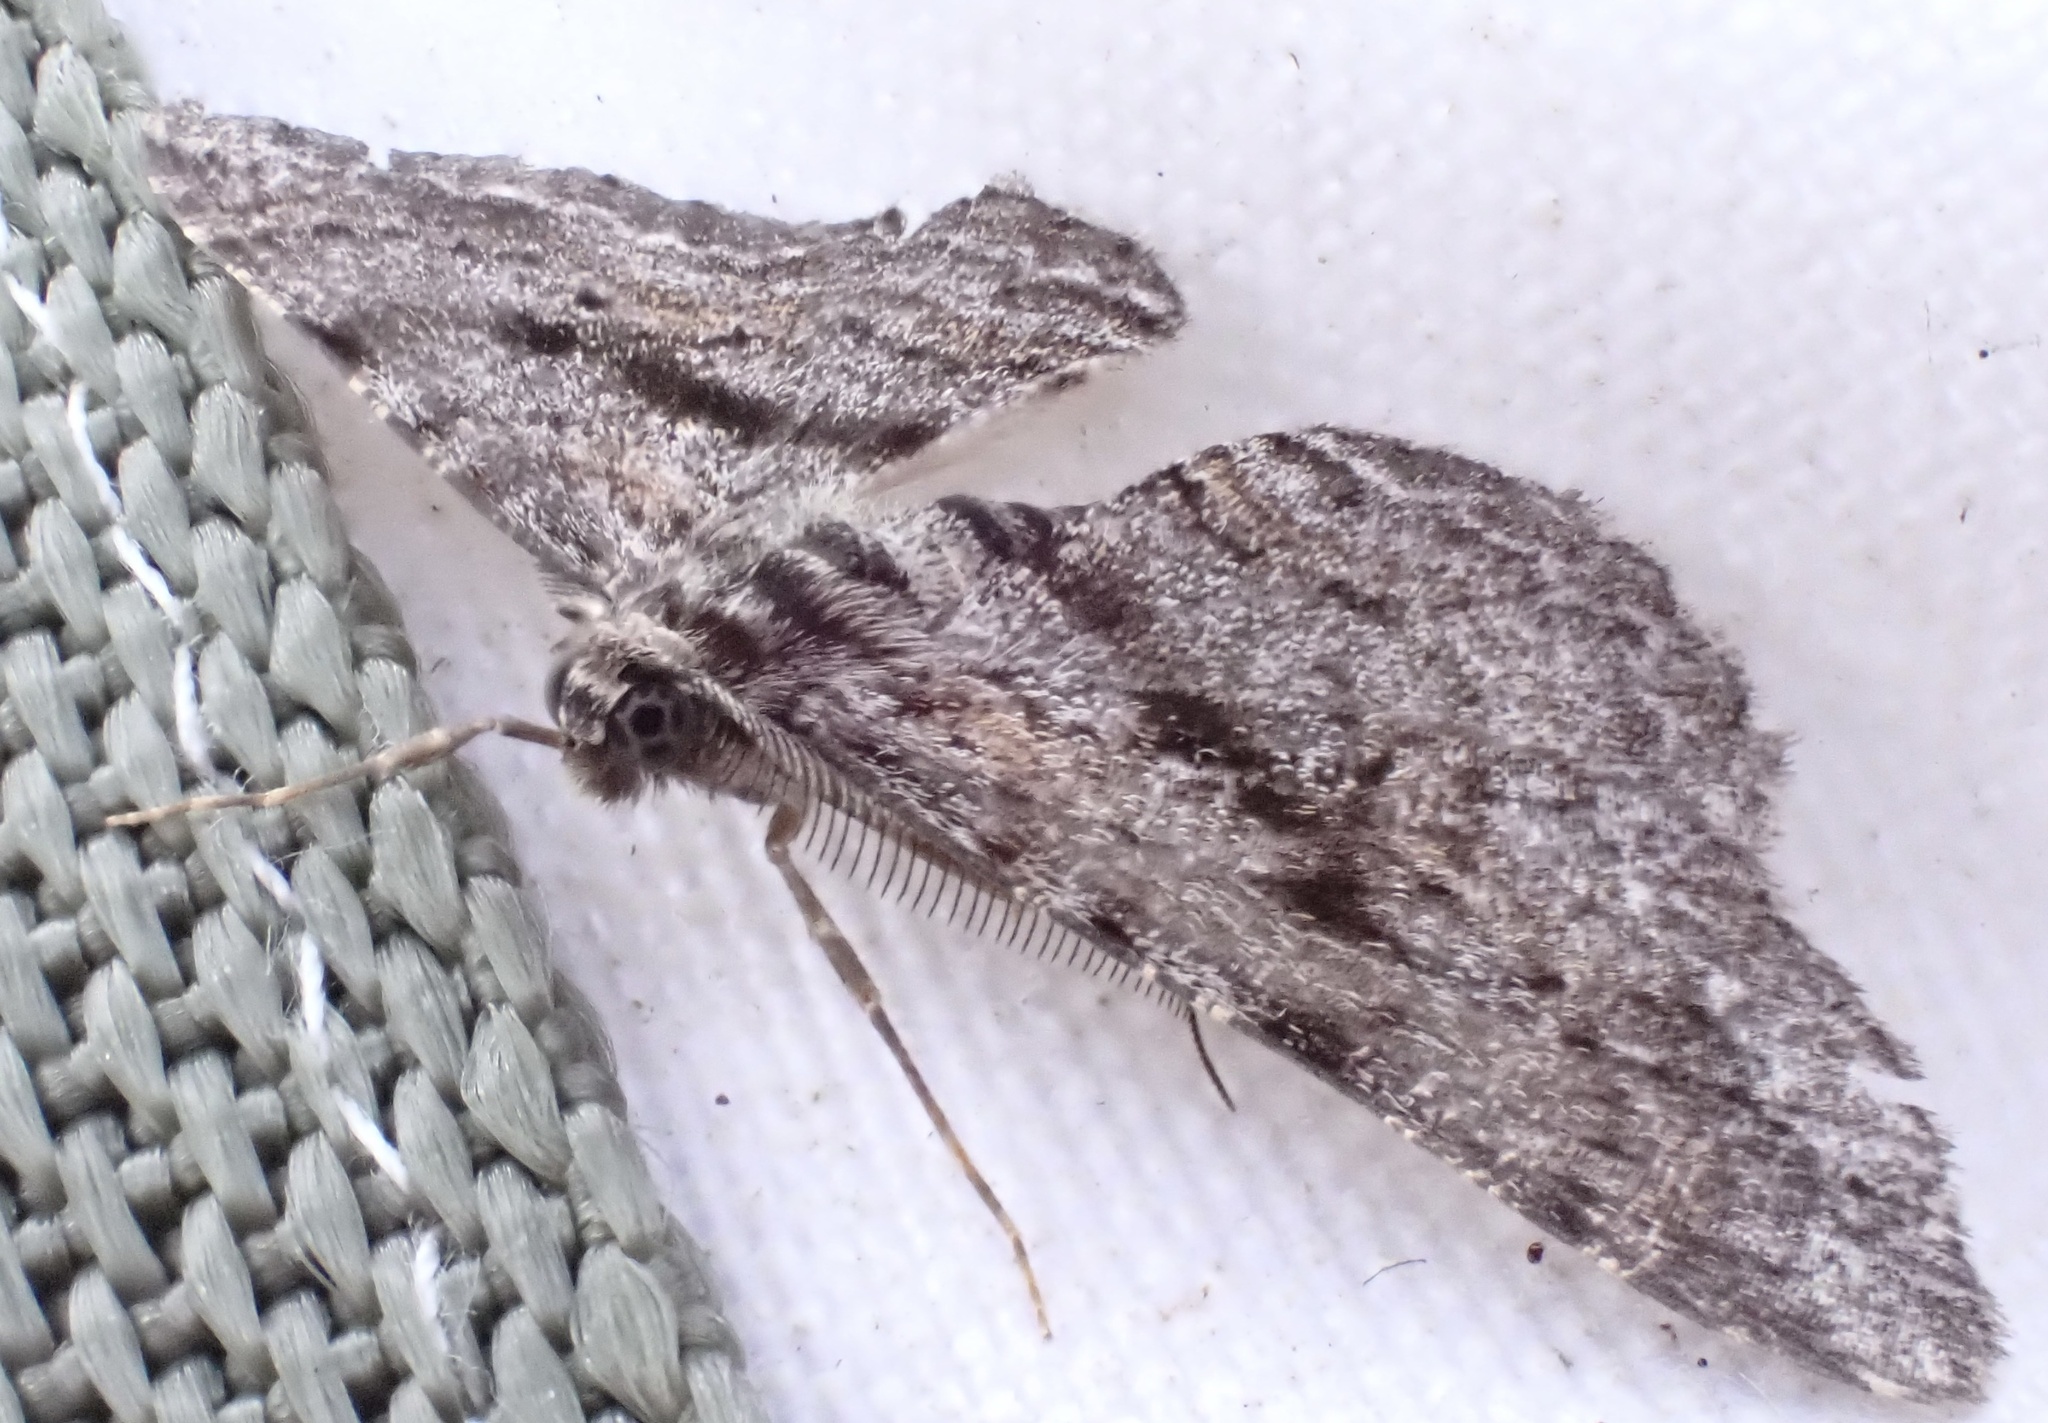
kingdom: Animalia
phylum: Arthropoda
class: Insecta
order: Lepidoptera
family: Geometridae
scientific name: Geometridae
